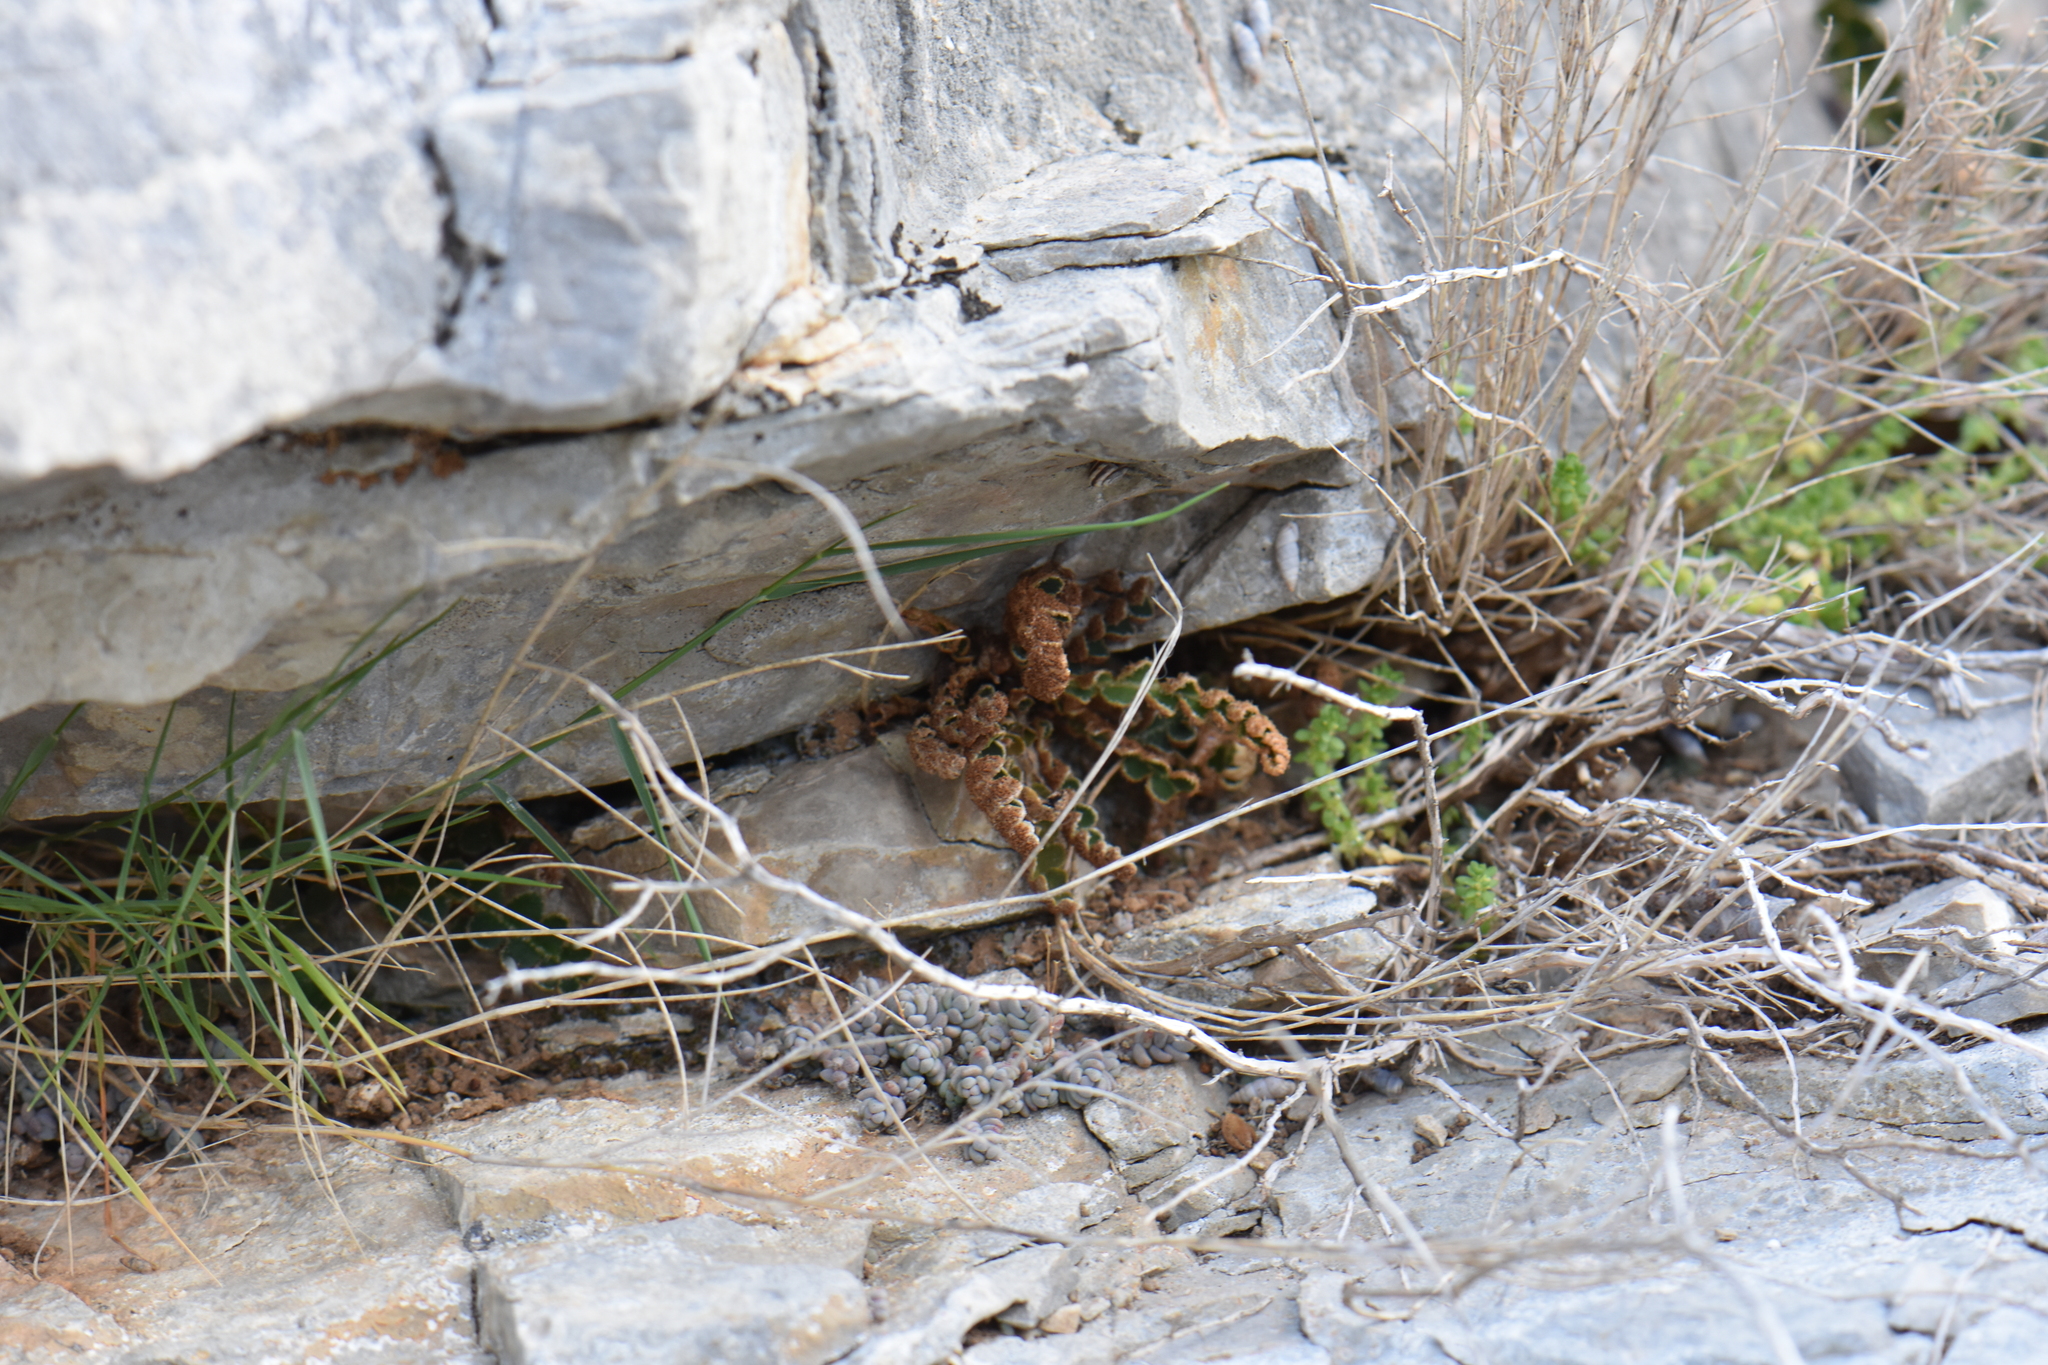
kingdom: Plantae
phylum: Tracheophyta
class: Polypodiopsida
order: Polypodiales
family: Aspleniaceae
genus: Asplenium
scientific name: Asplenium ceterach
